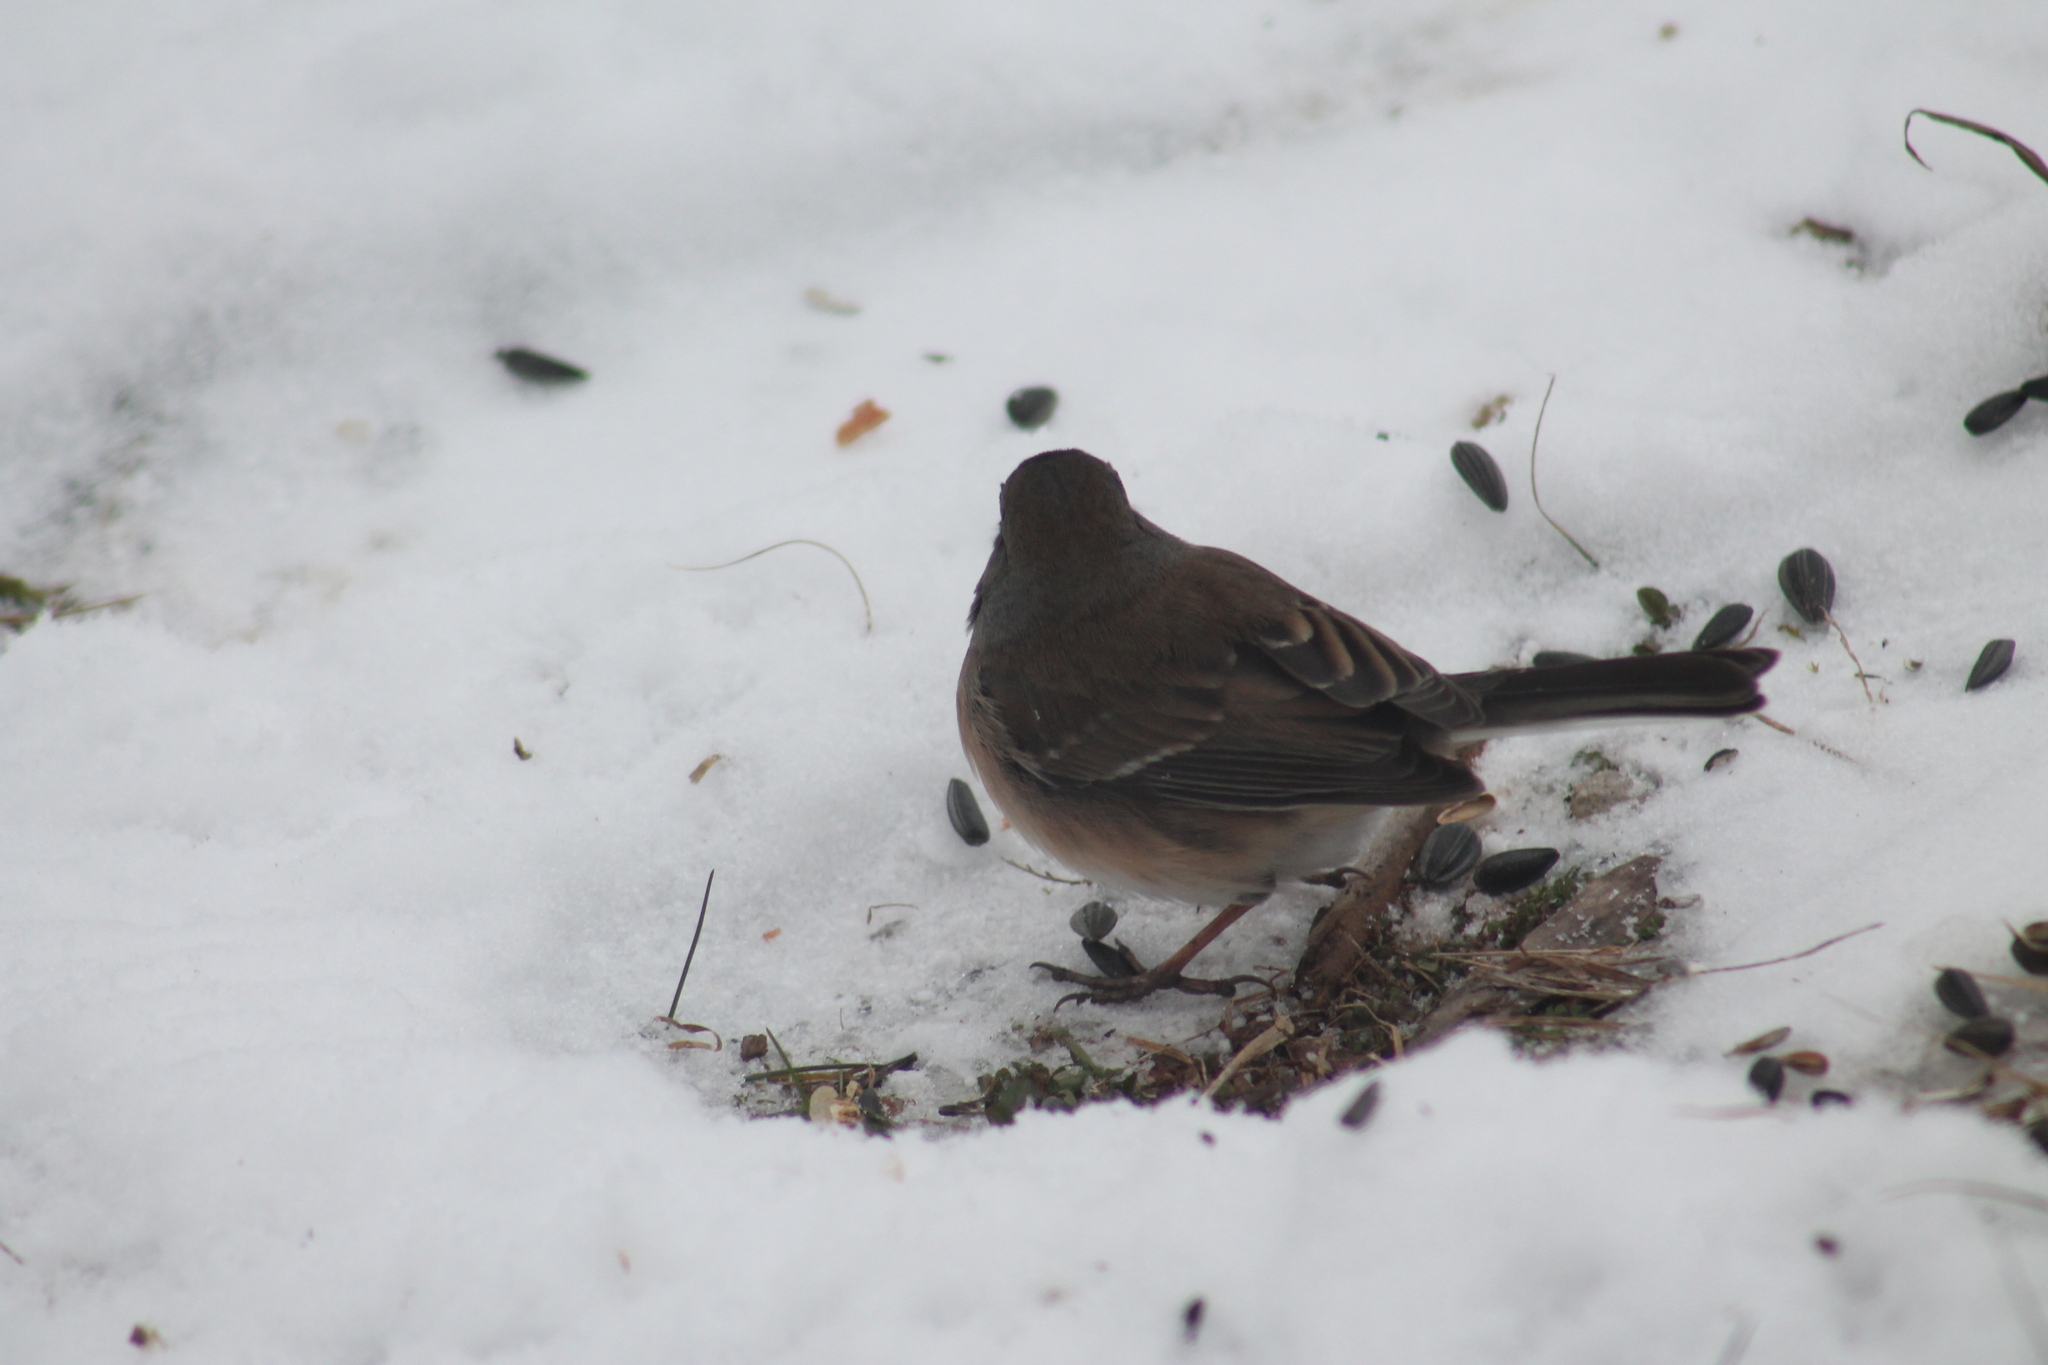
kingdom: Animalia
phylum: Chordata
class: Aves
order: Passeriformes
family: Passerellidae
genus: Junco
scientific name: Junco hyemalis
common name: Dark-eyed junco
